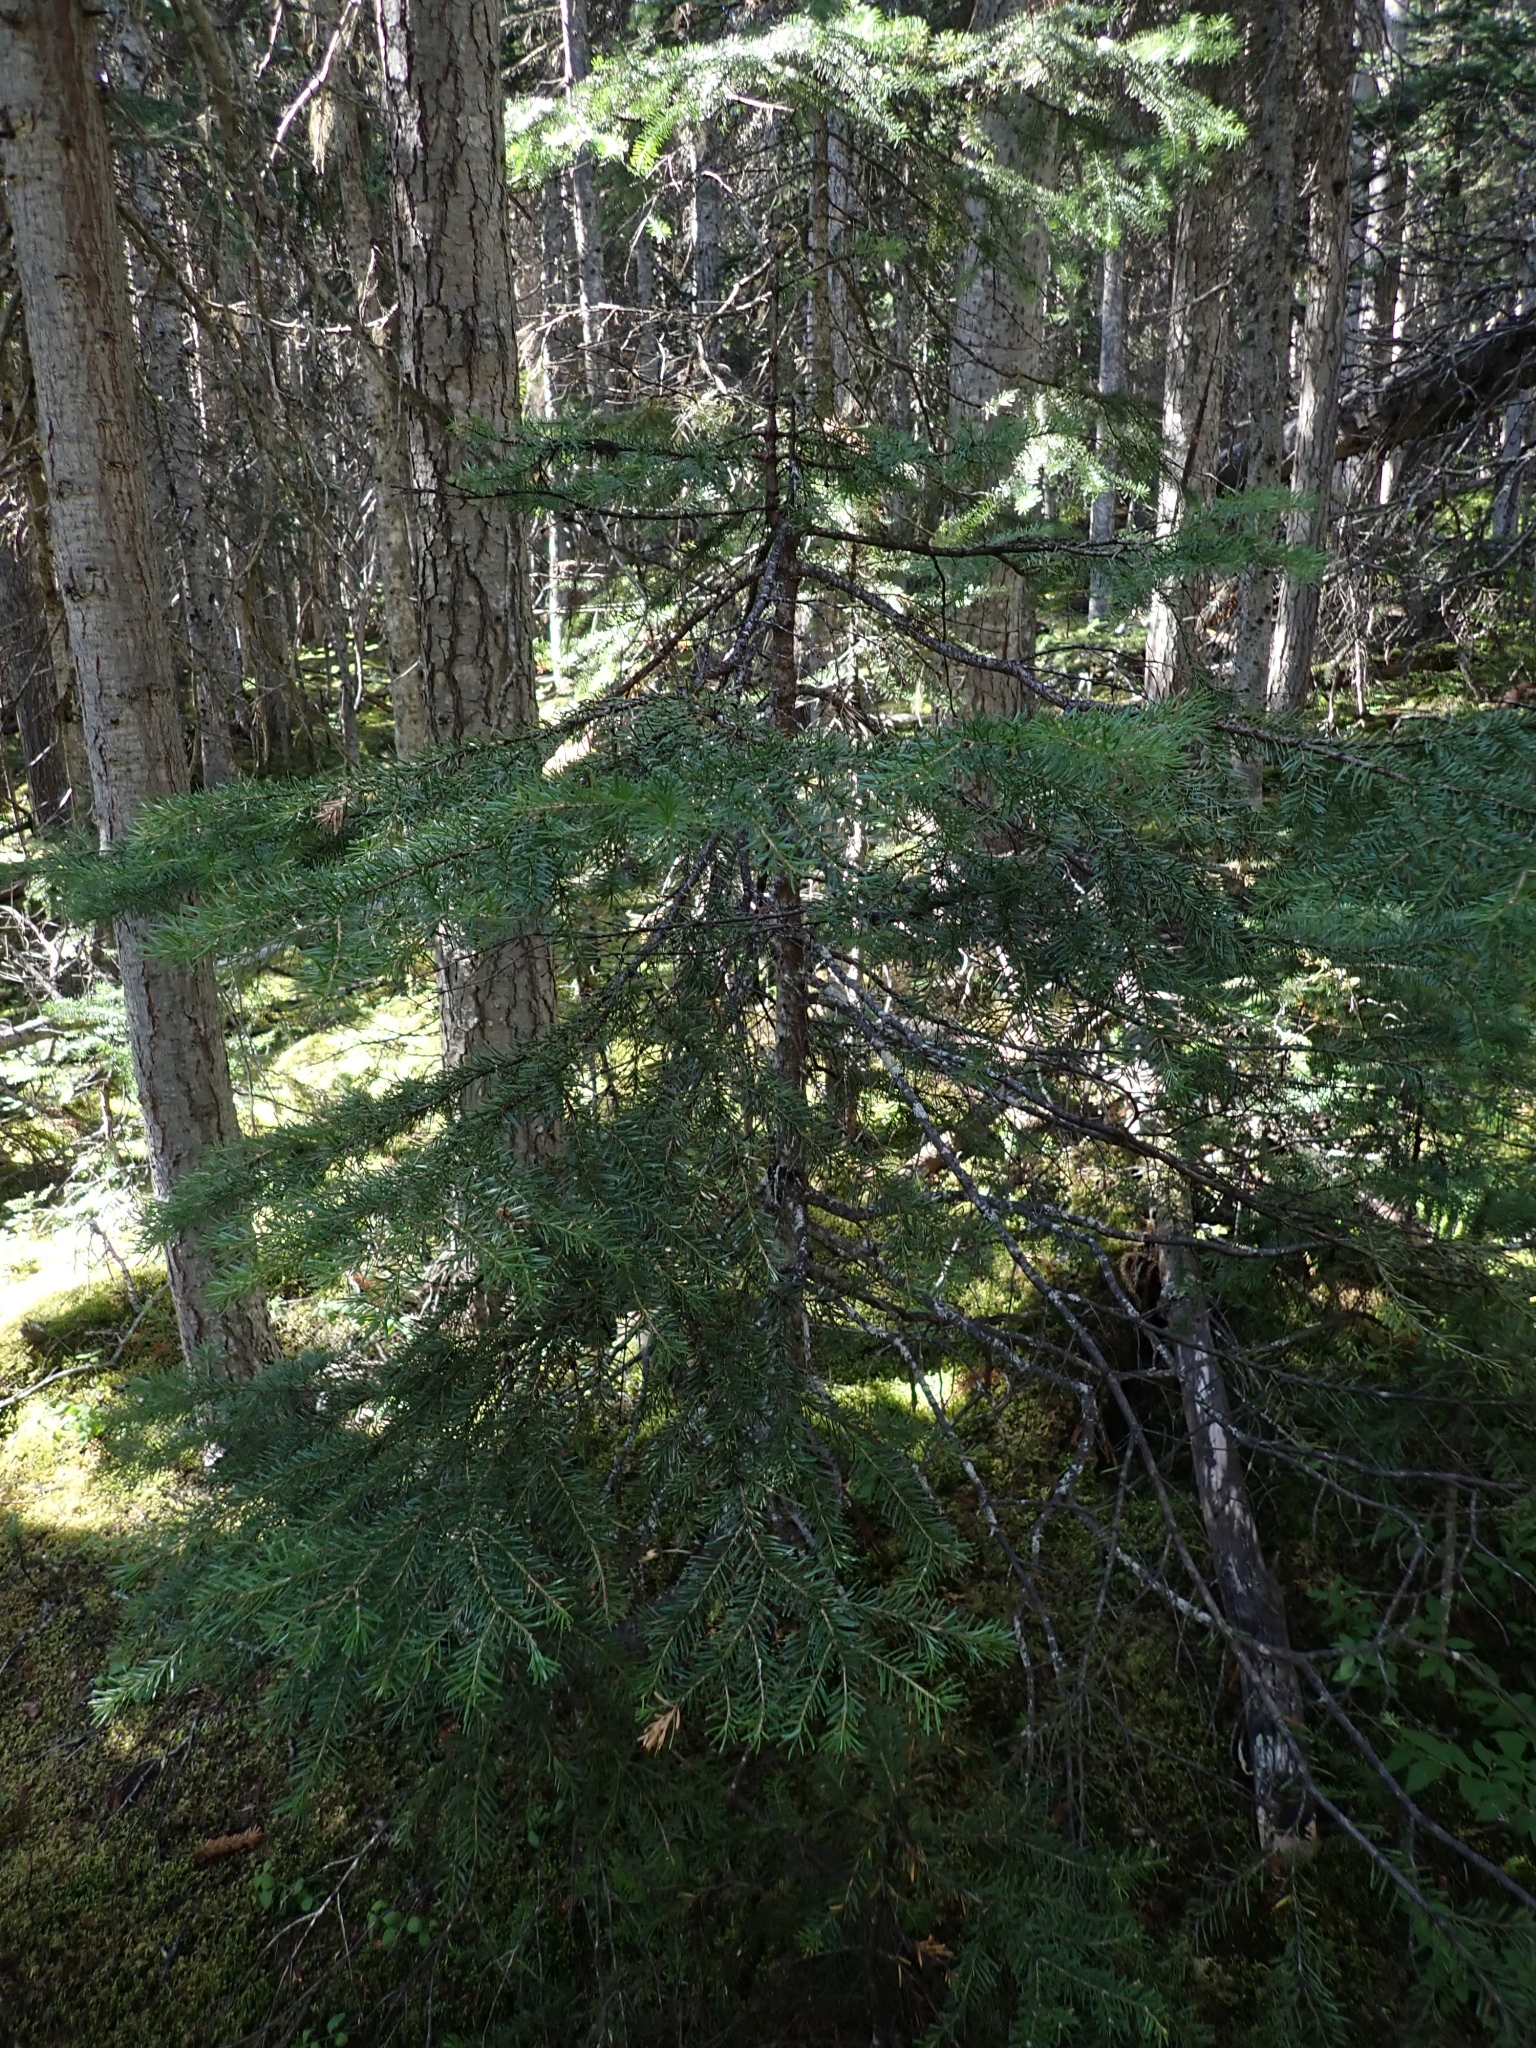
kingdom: Plantae
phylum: Tracheophyta
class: Pinopsida
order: Pinales
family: Pinaceae
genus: Abies
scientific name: Abies lasiocarpa
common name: Subalpine fir
